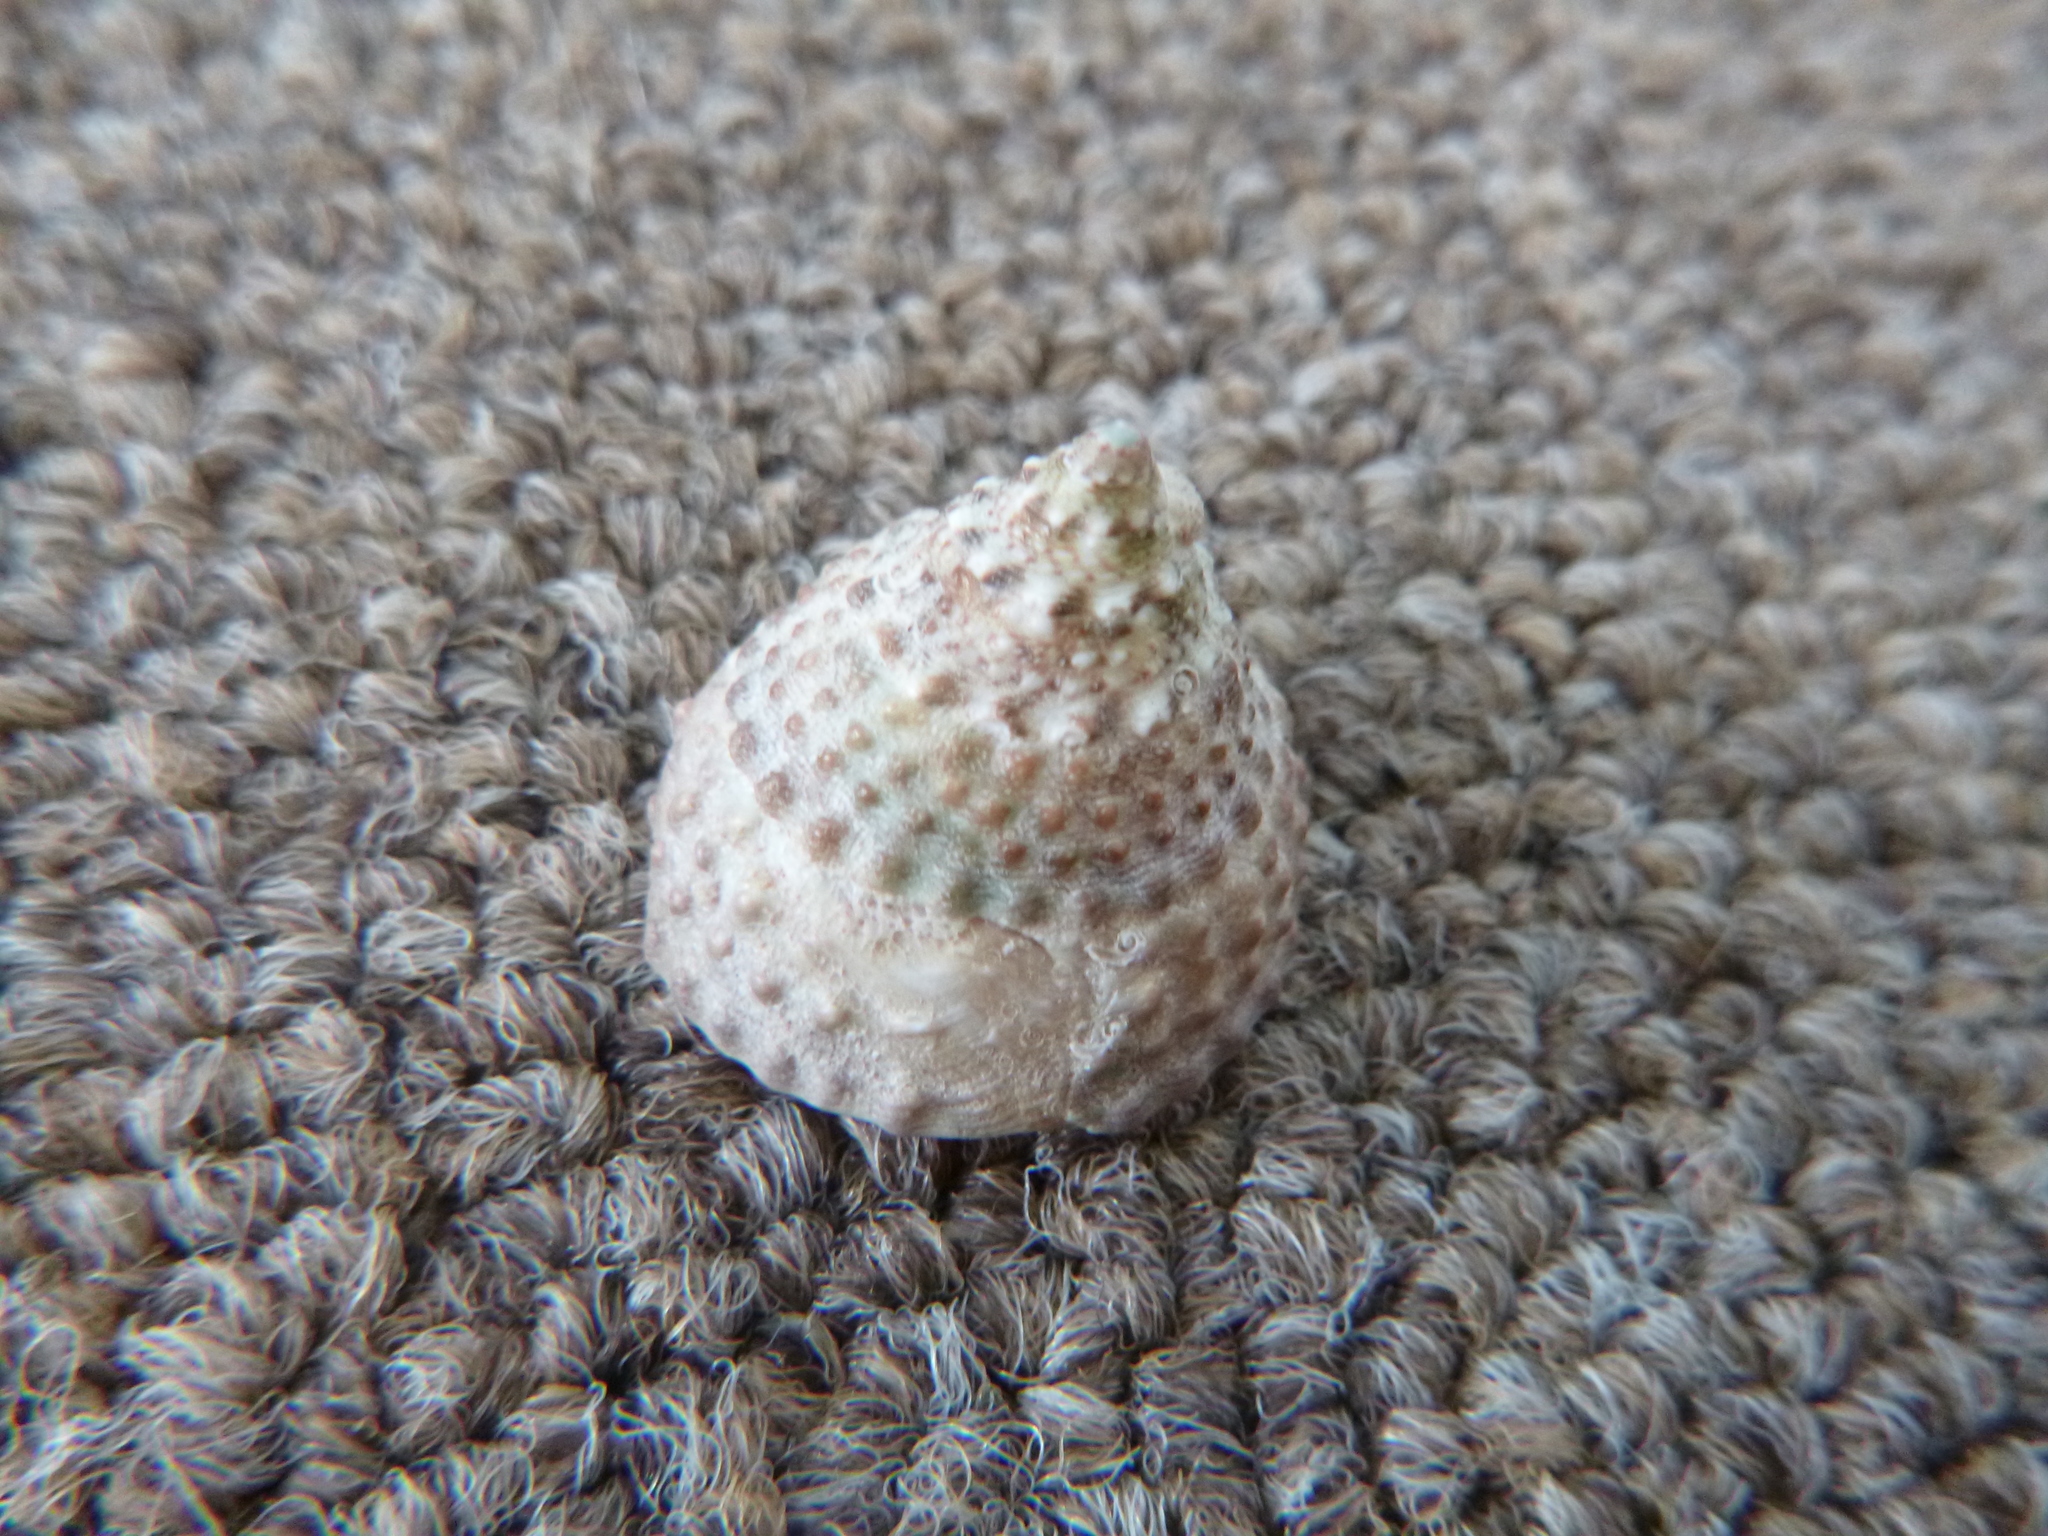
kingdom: Animalia
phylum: Mollusca
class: Gastropoda
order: Trochida
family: Trochidae
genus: Coelotrochus
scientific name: Coelotrochus viridis
